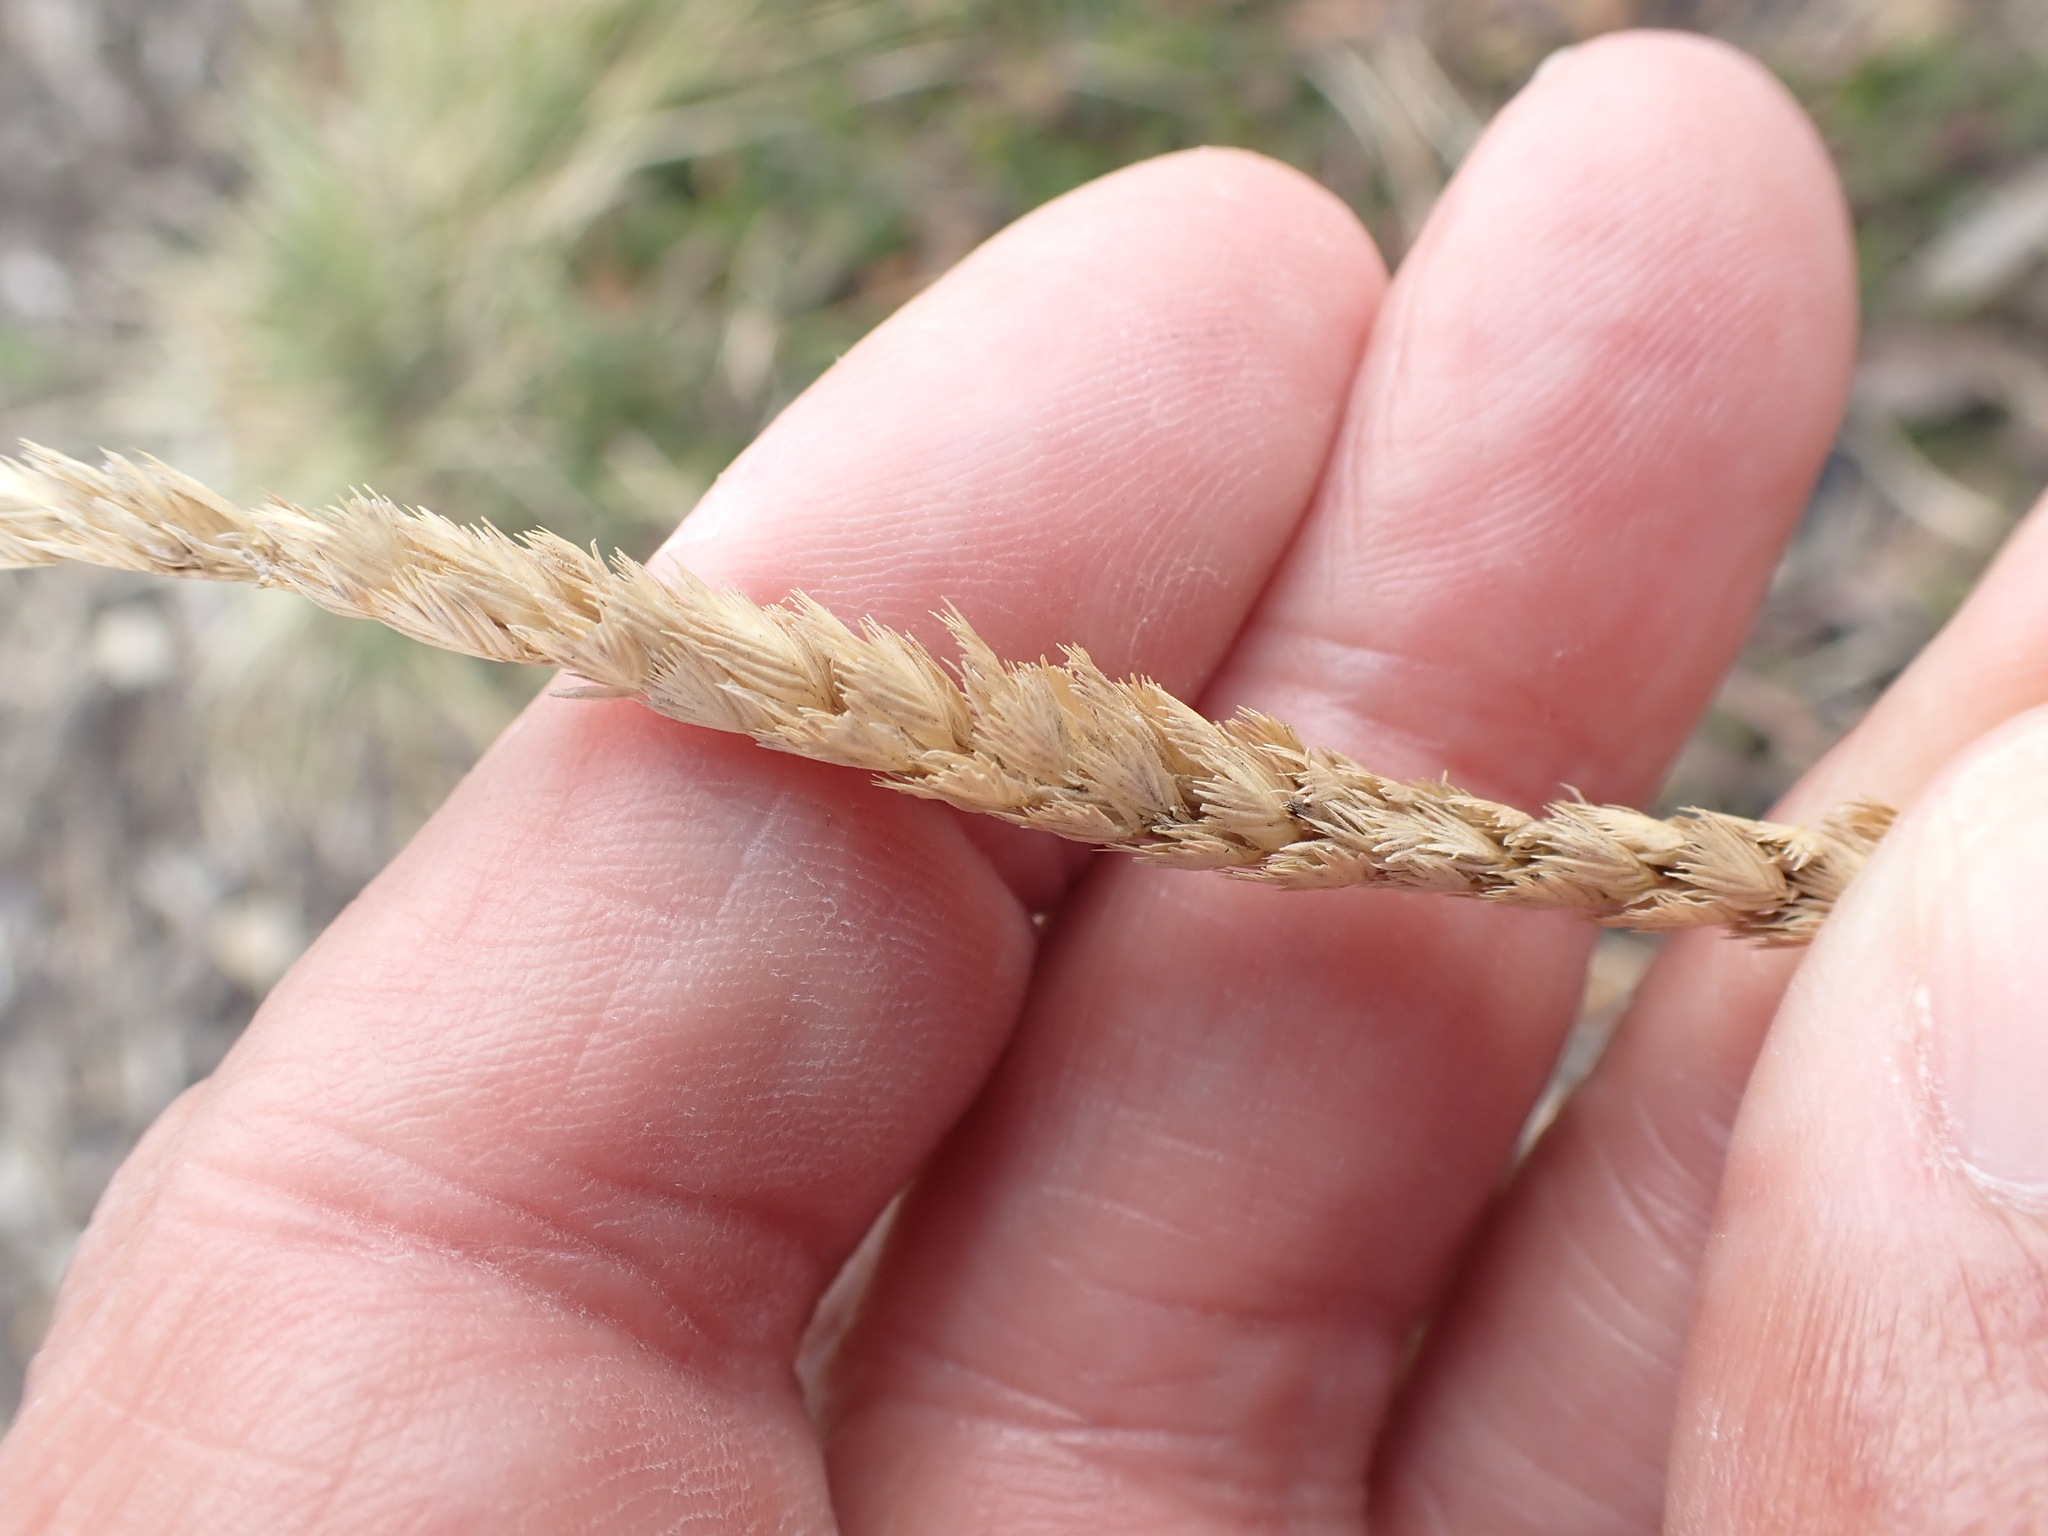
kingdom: Plantae
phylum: Tracheophyta
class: Liliopsida
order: Poales
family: Poaceae
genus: Cynosurus
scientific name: Cynosurus cristatus
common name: Crested dog's-tail
